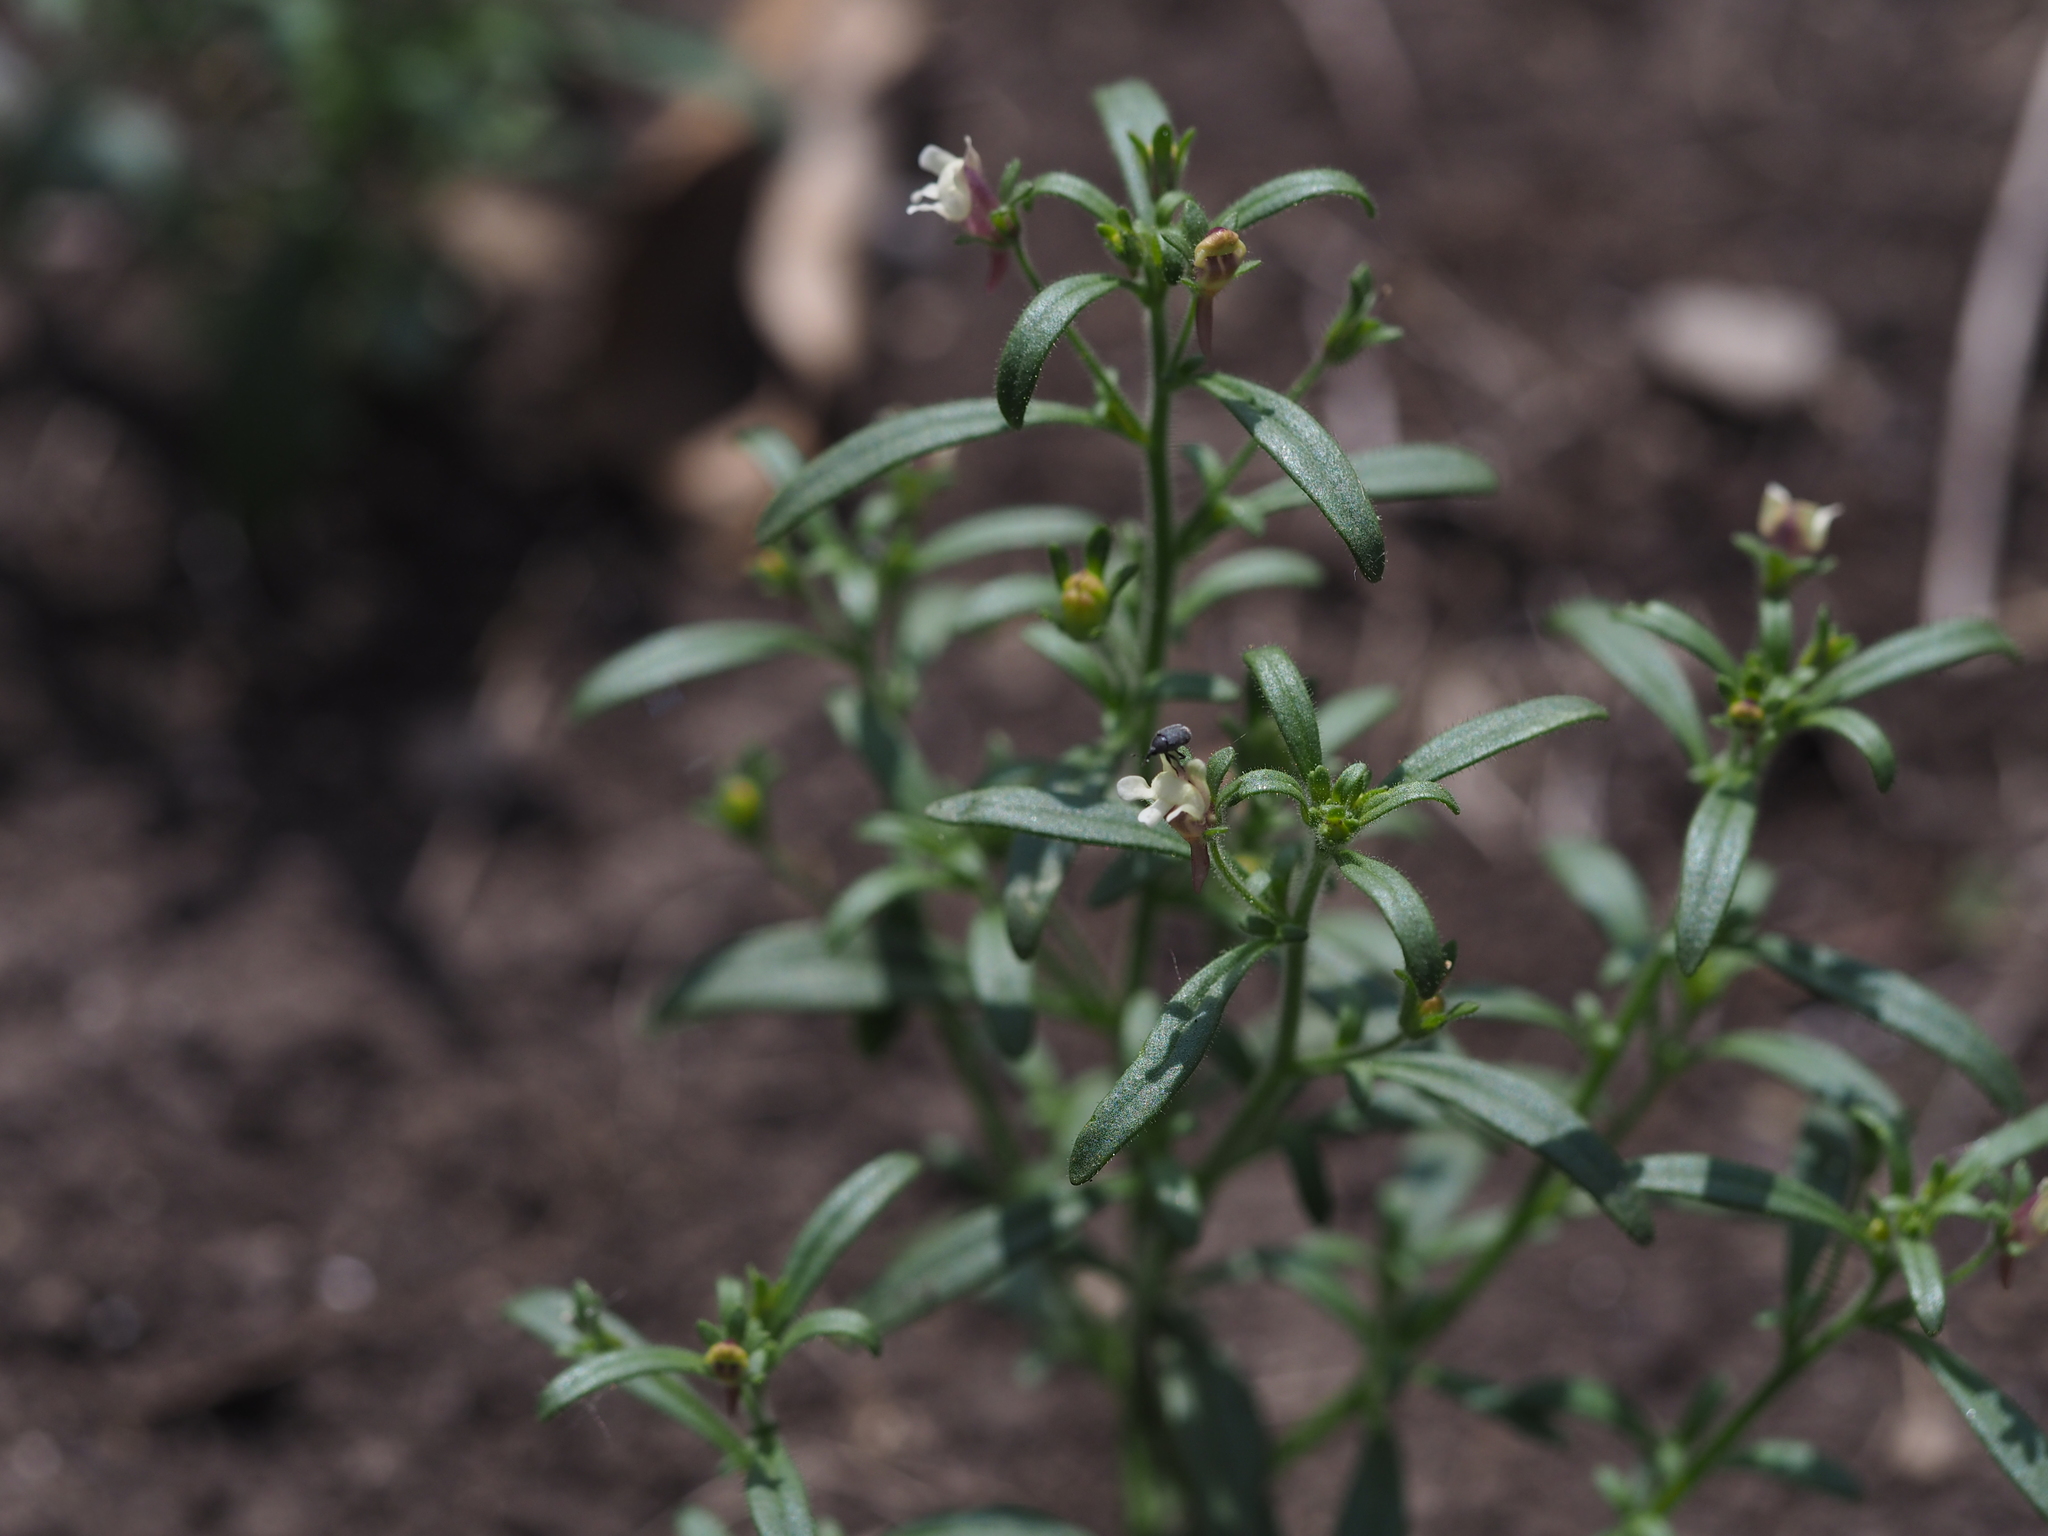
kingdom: Plantae
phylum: Tracheophyta
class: Magnoliopsida
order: Lamiales
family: Plantaginaceae
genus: Chaenorhinum
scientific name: Chaenorhinum minus
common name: Dwarf snapdragon
